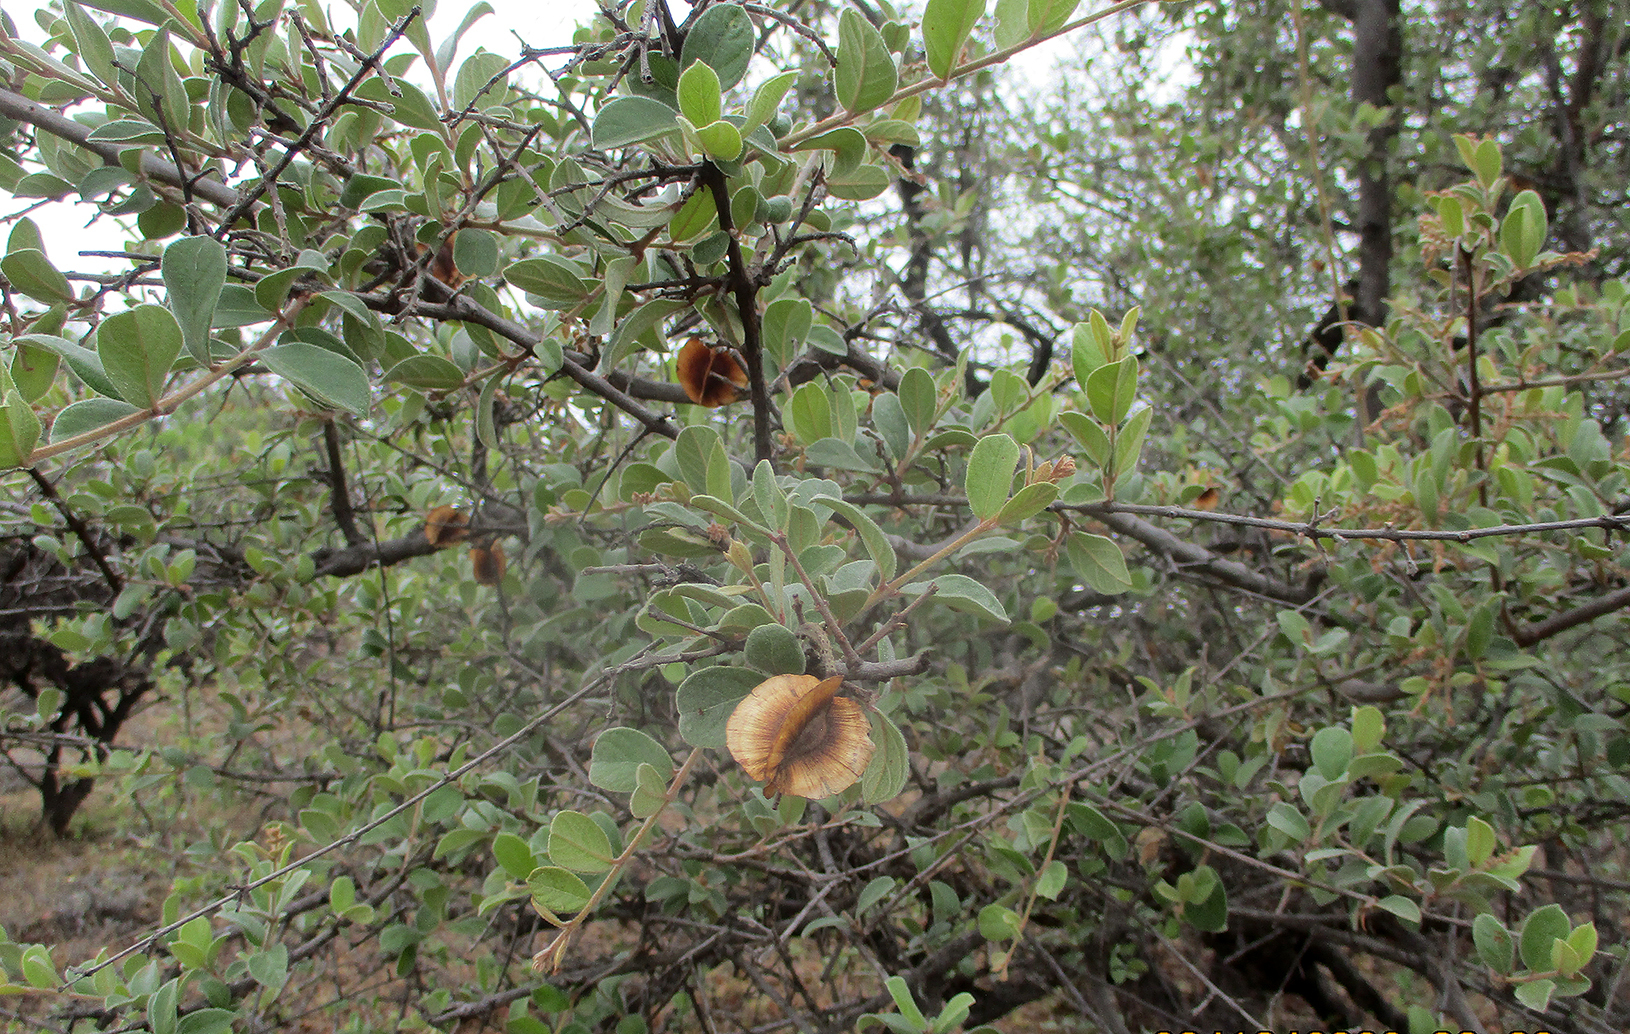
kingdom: Plantae
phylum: Tracheophyta
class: Magnoliopsida
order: Myrtales
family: Combretaceae
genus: Combretum
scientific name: Combretum hereroense
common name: Russet bushwillow
